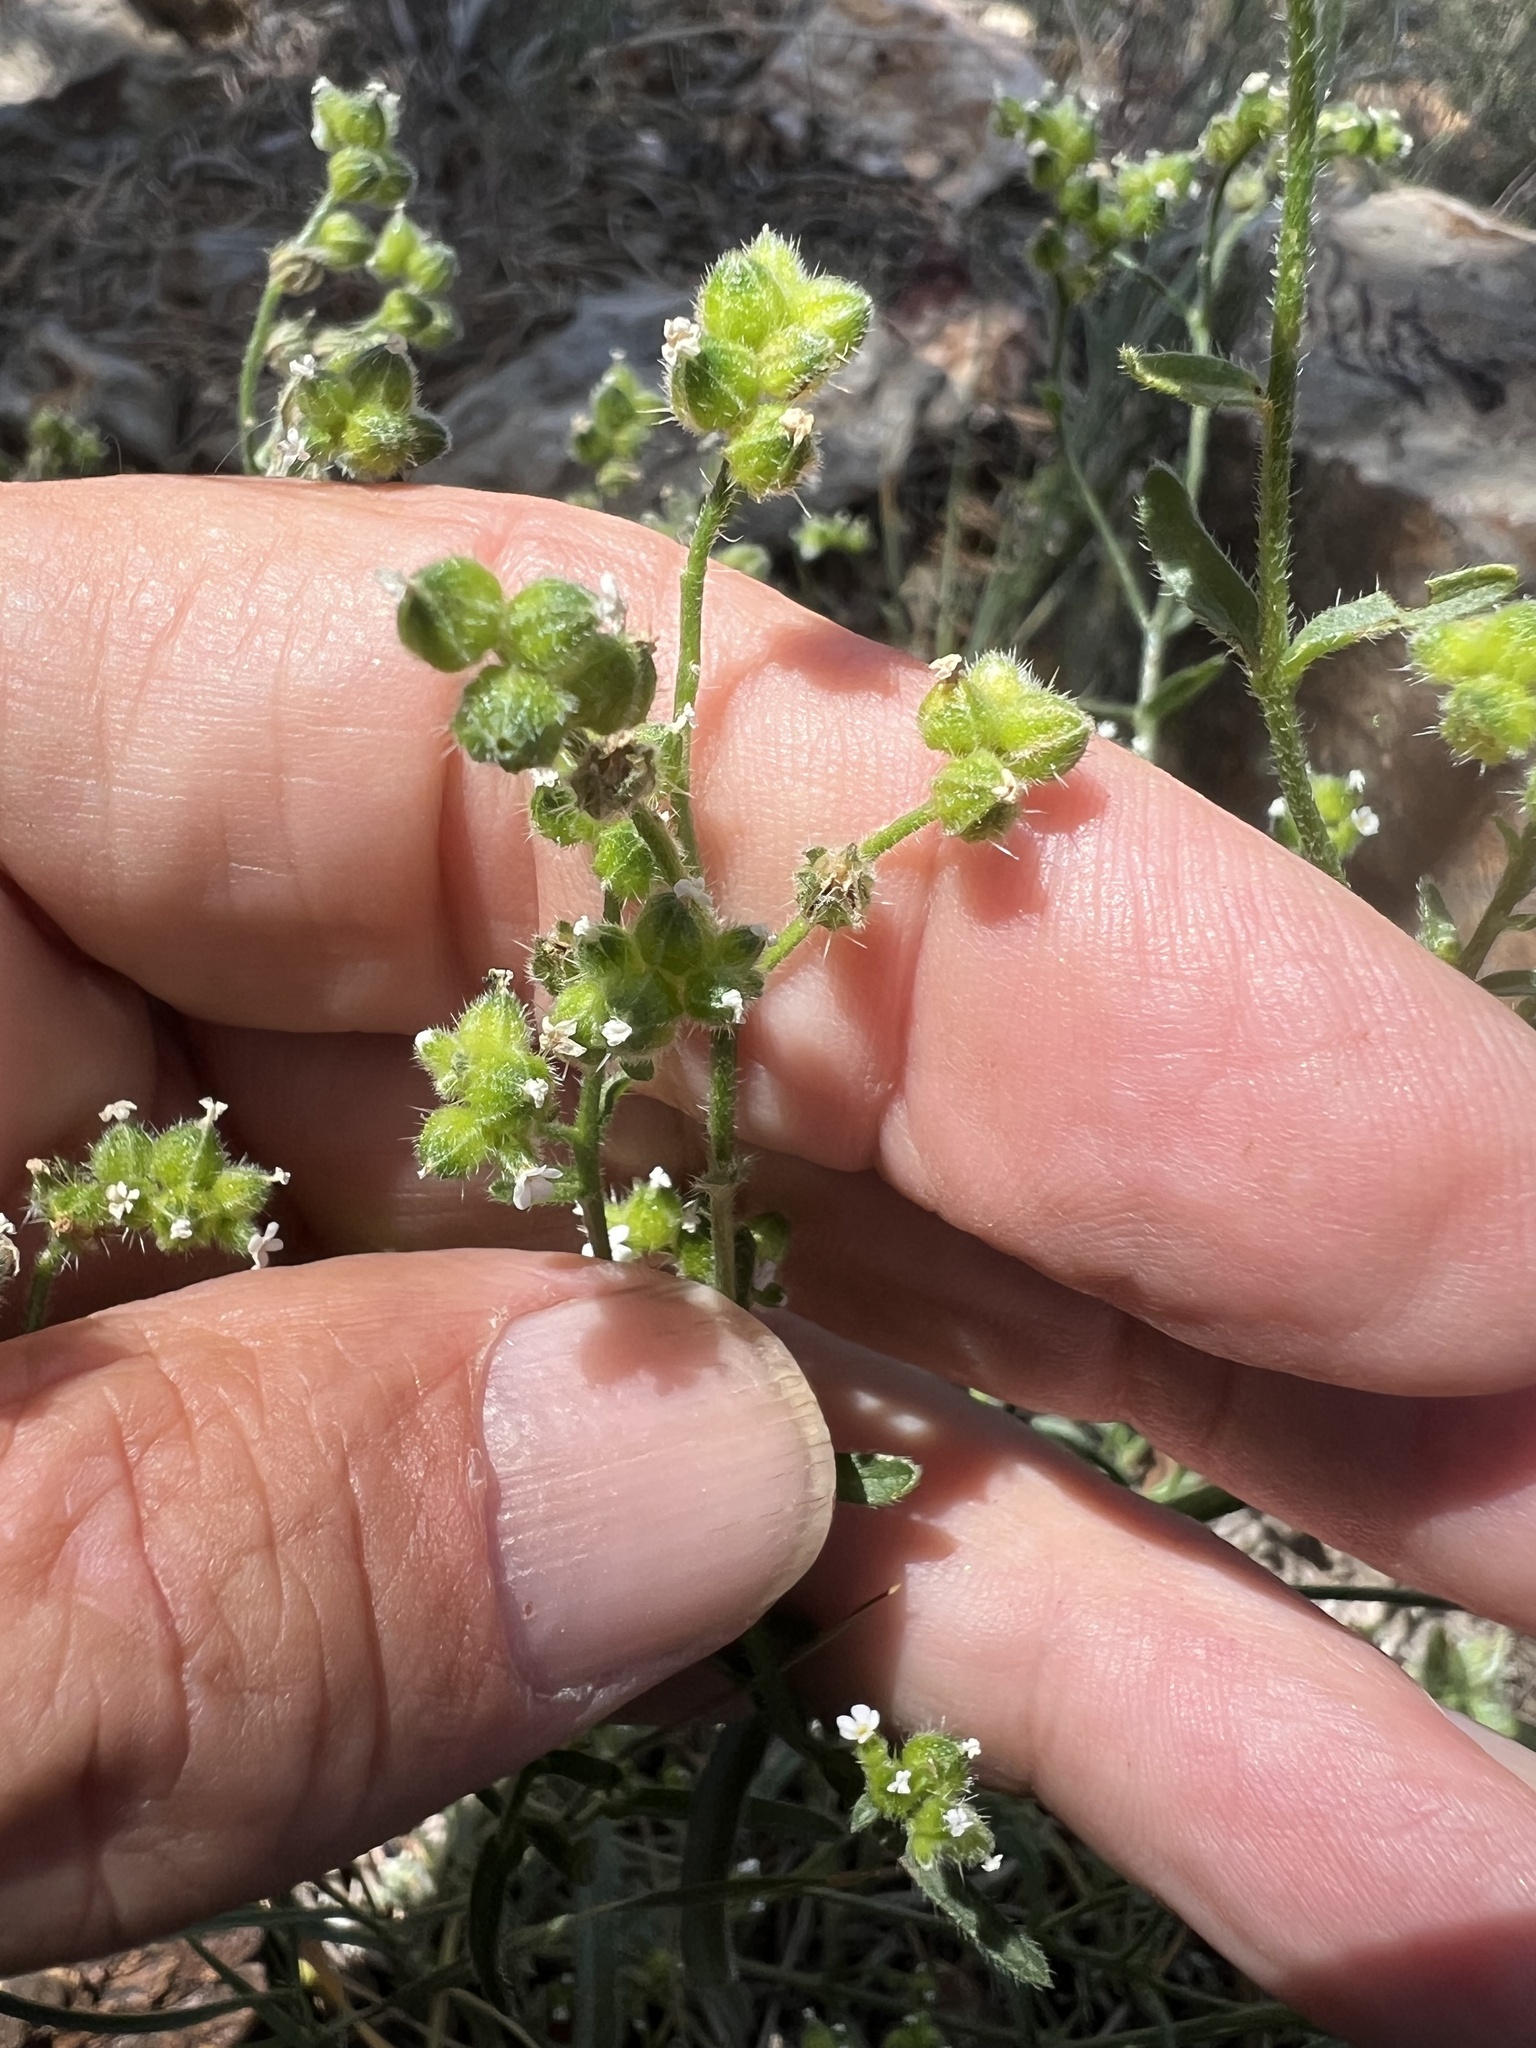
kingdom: Plantae
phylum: Tracheophyta
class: Magnoliopsida
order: Boraginales
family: Boraginaceae
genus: Cryptantha
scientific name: Cryptantha pterocarya
